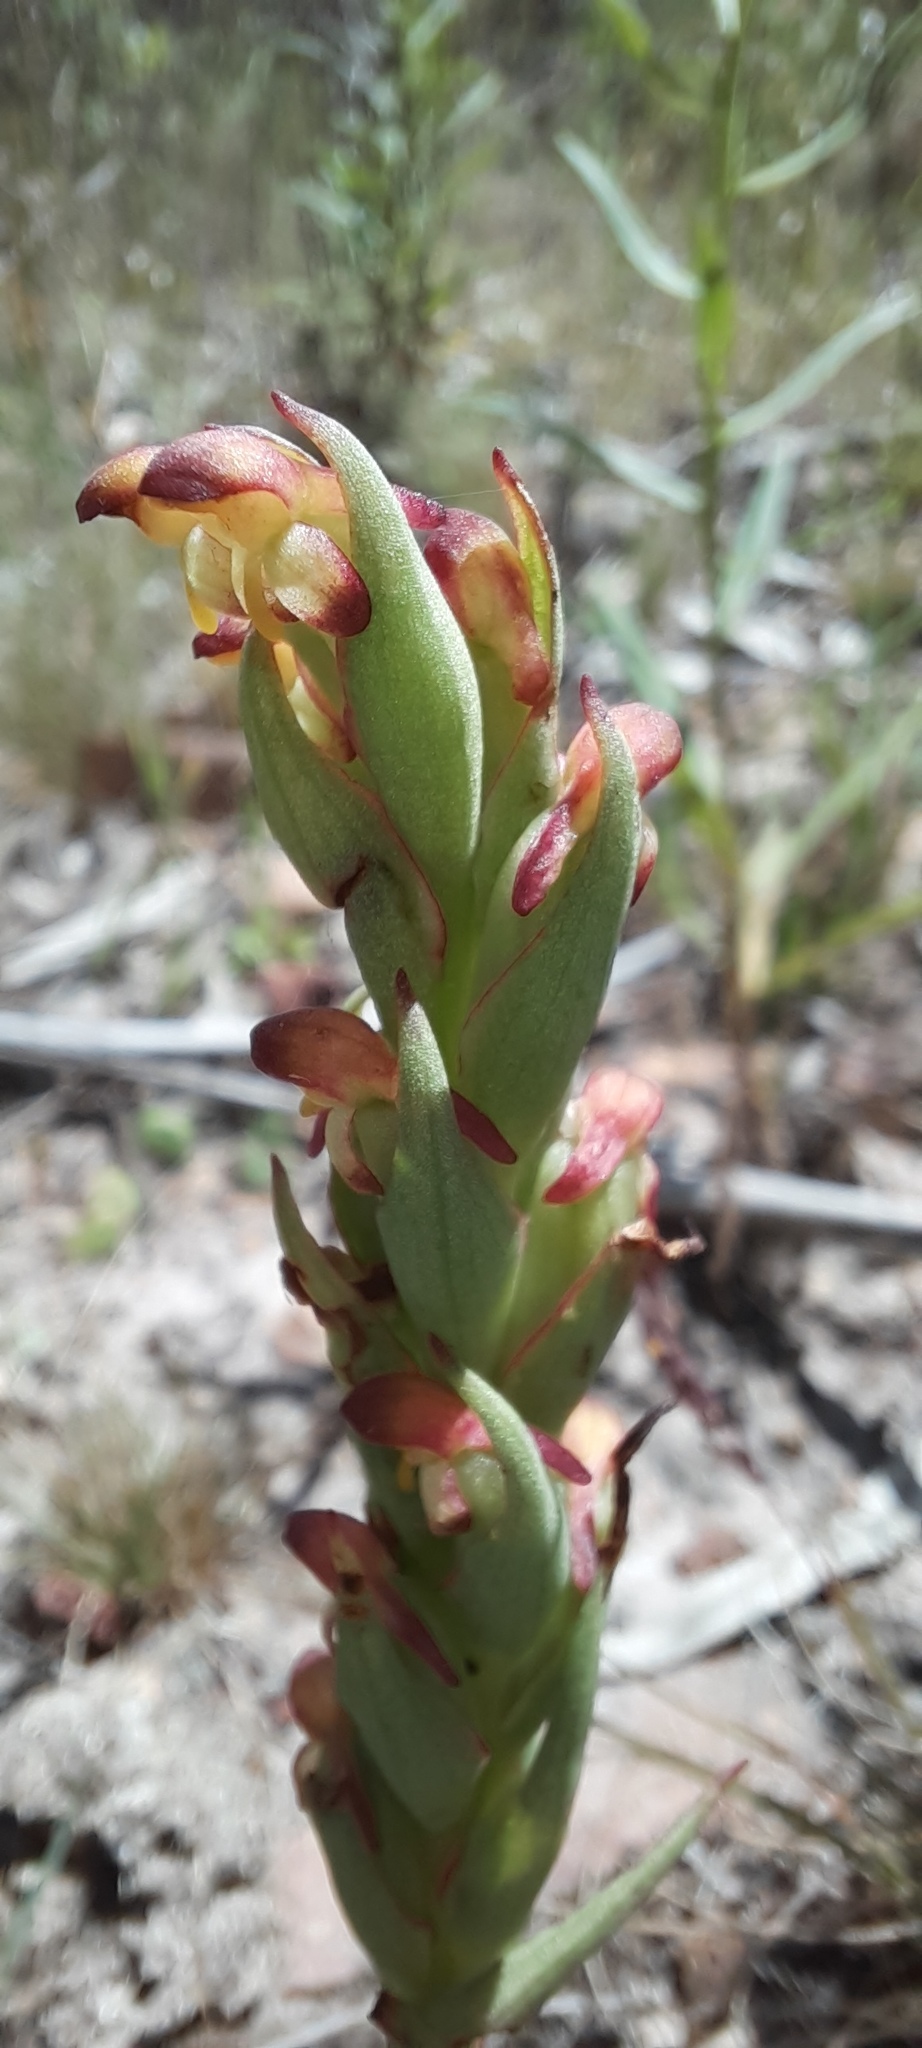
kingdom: Plantae
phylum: Tracheophyta
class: Liliopsida
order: Asparagales
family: Orchidaceae
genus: Disa
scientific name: Disa bracteata
